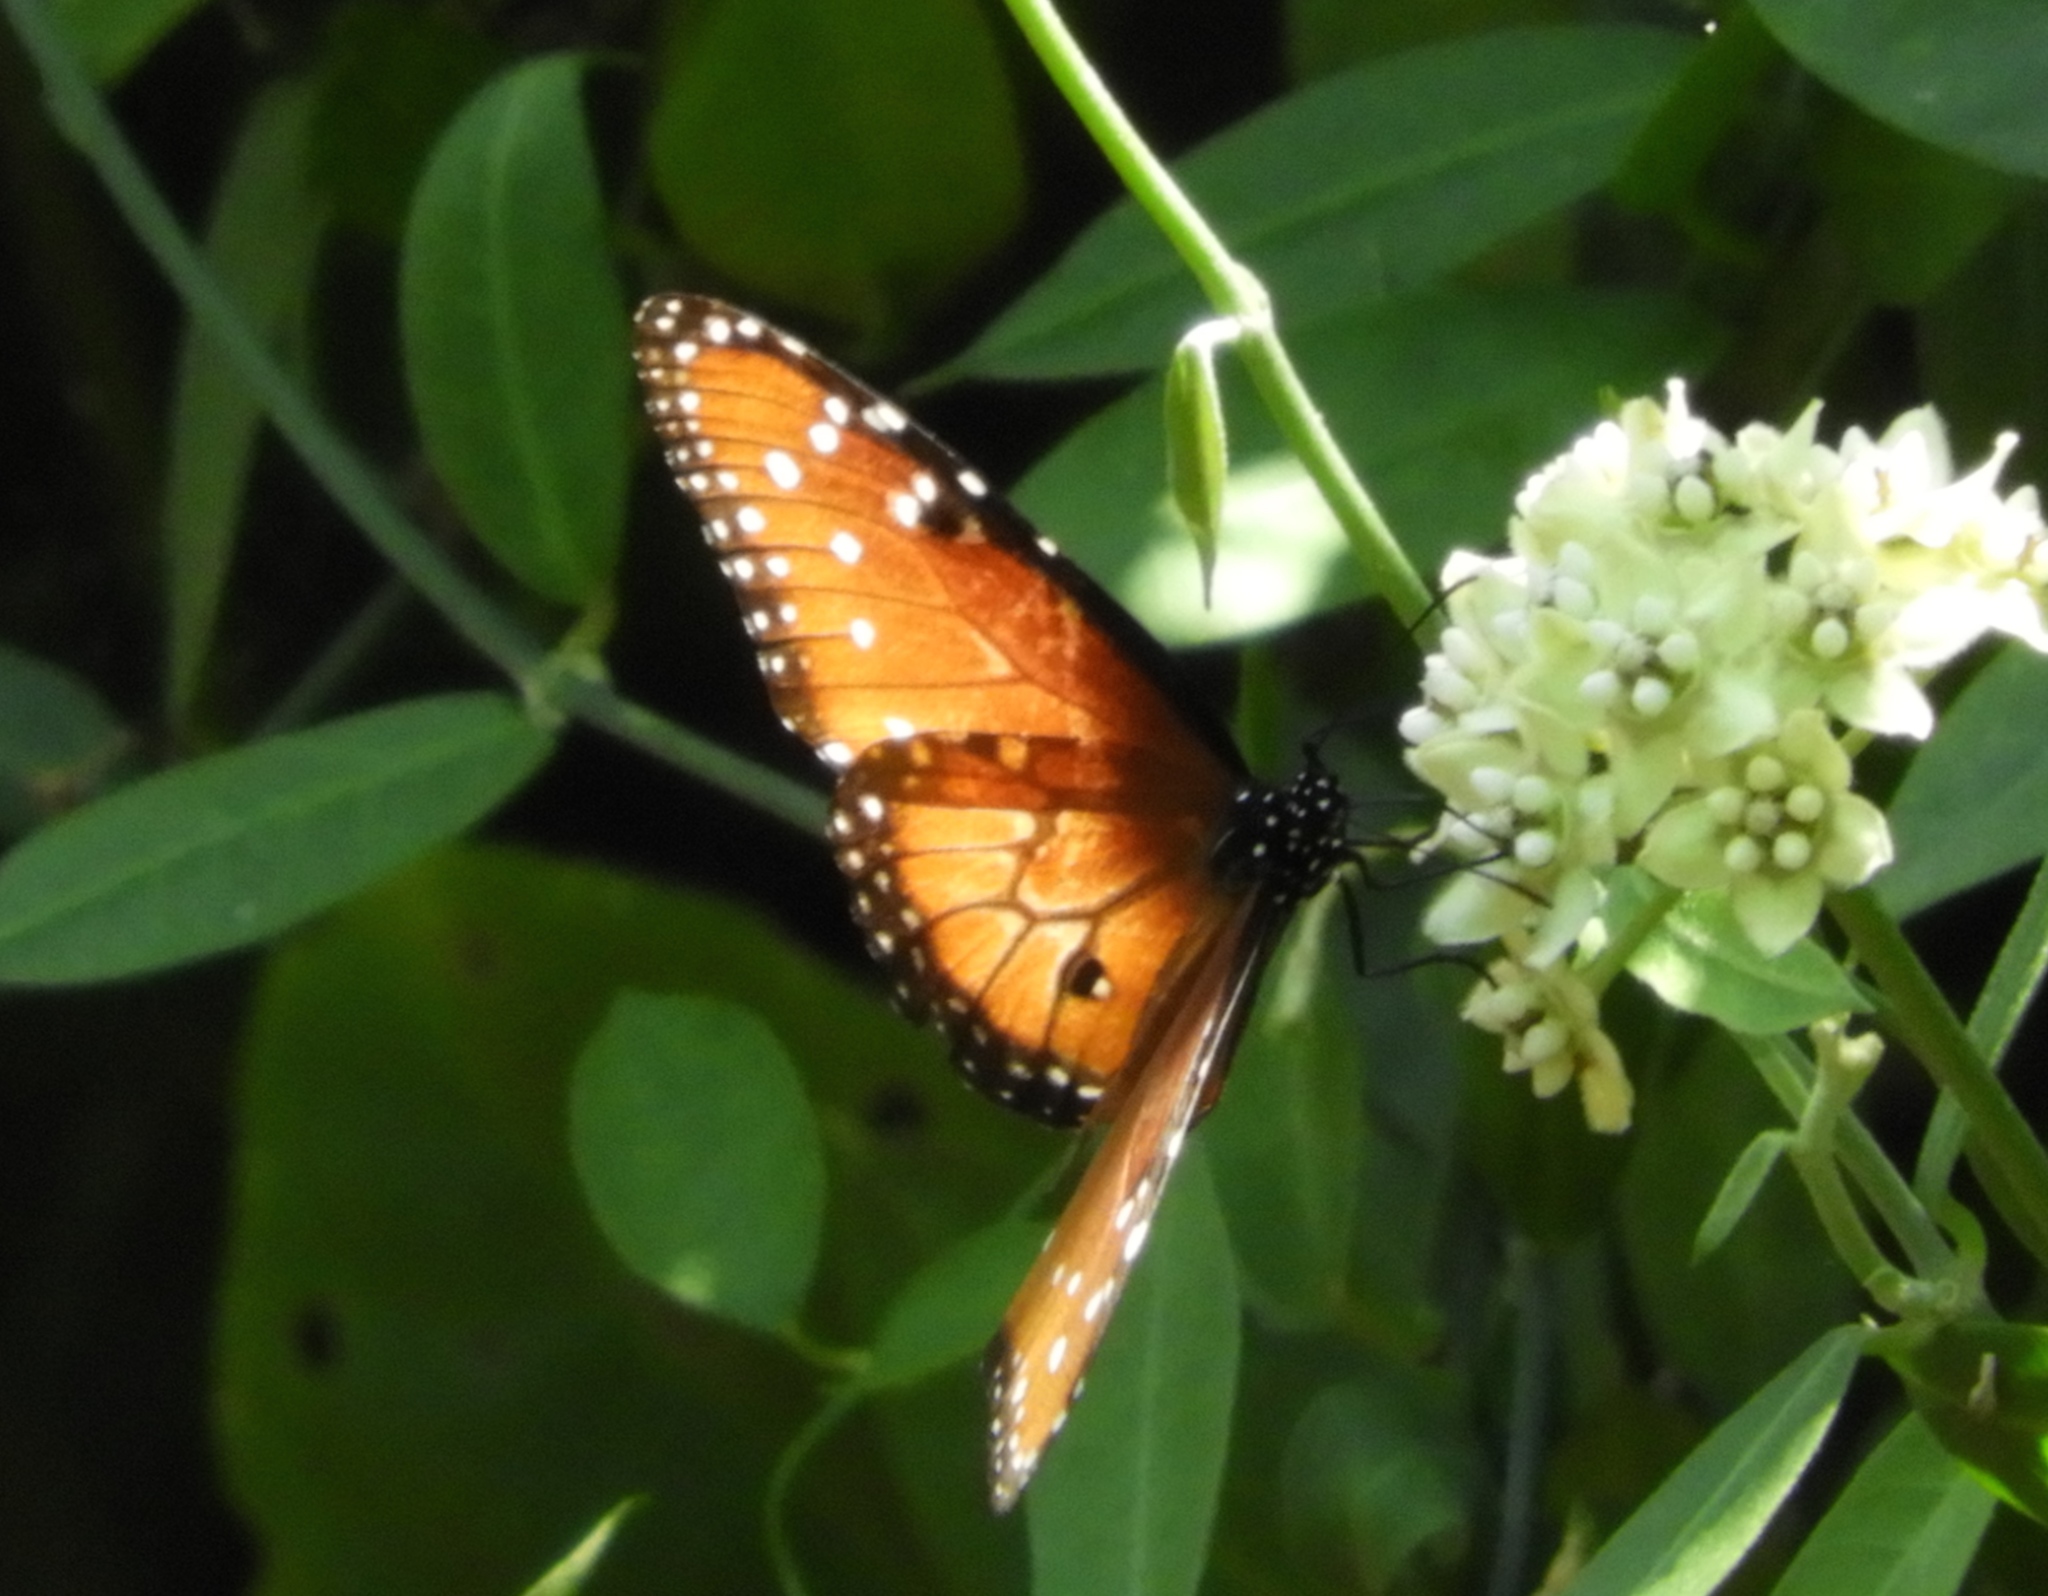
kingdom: Animalia
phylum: Arthropoda
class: Insecta
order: Lepidoptera
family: Nymphalidae
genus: Danaus
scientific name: Danaus gilippus
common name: Queen
